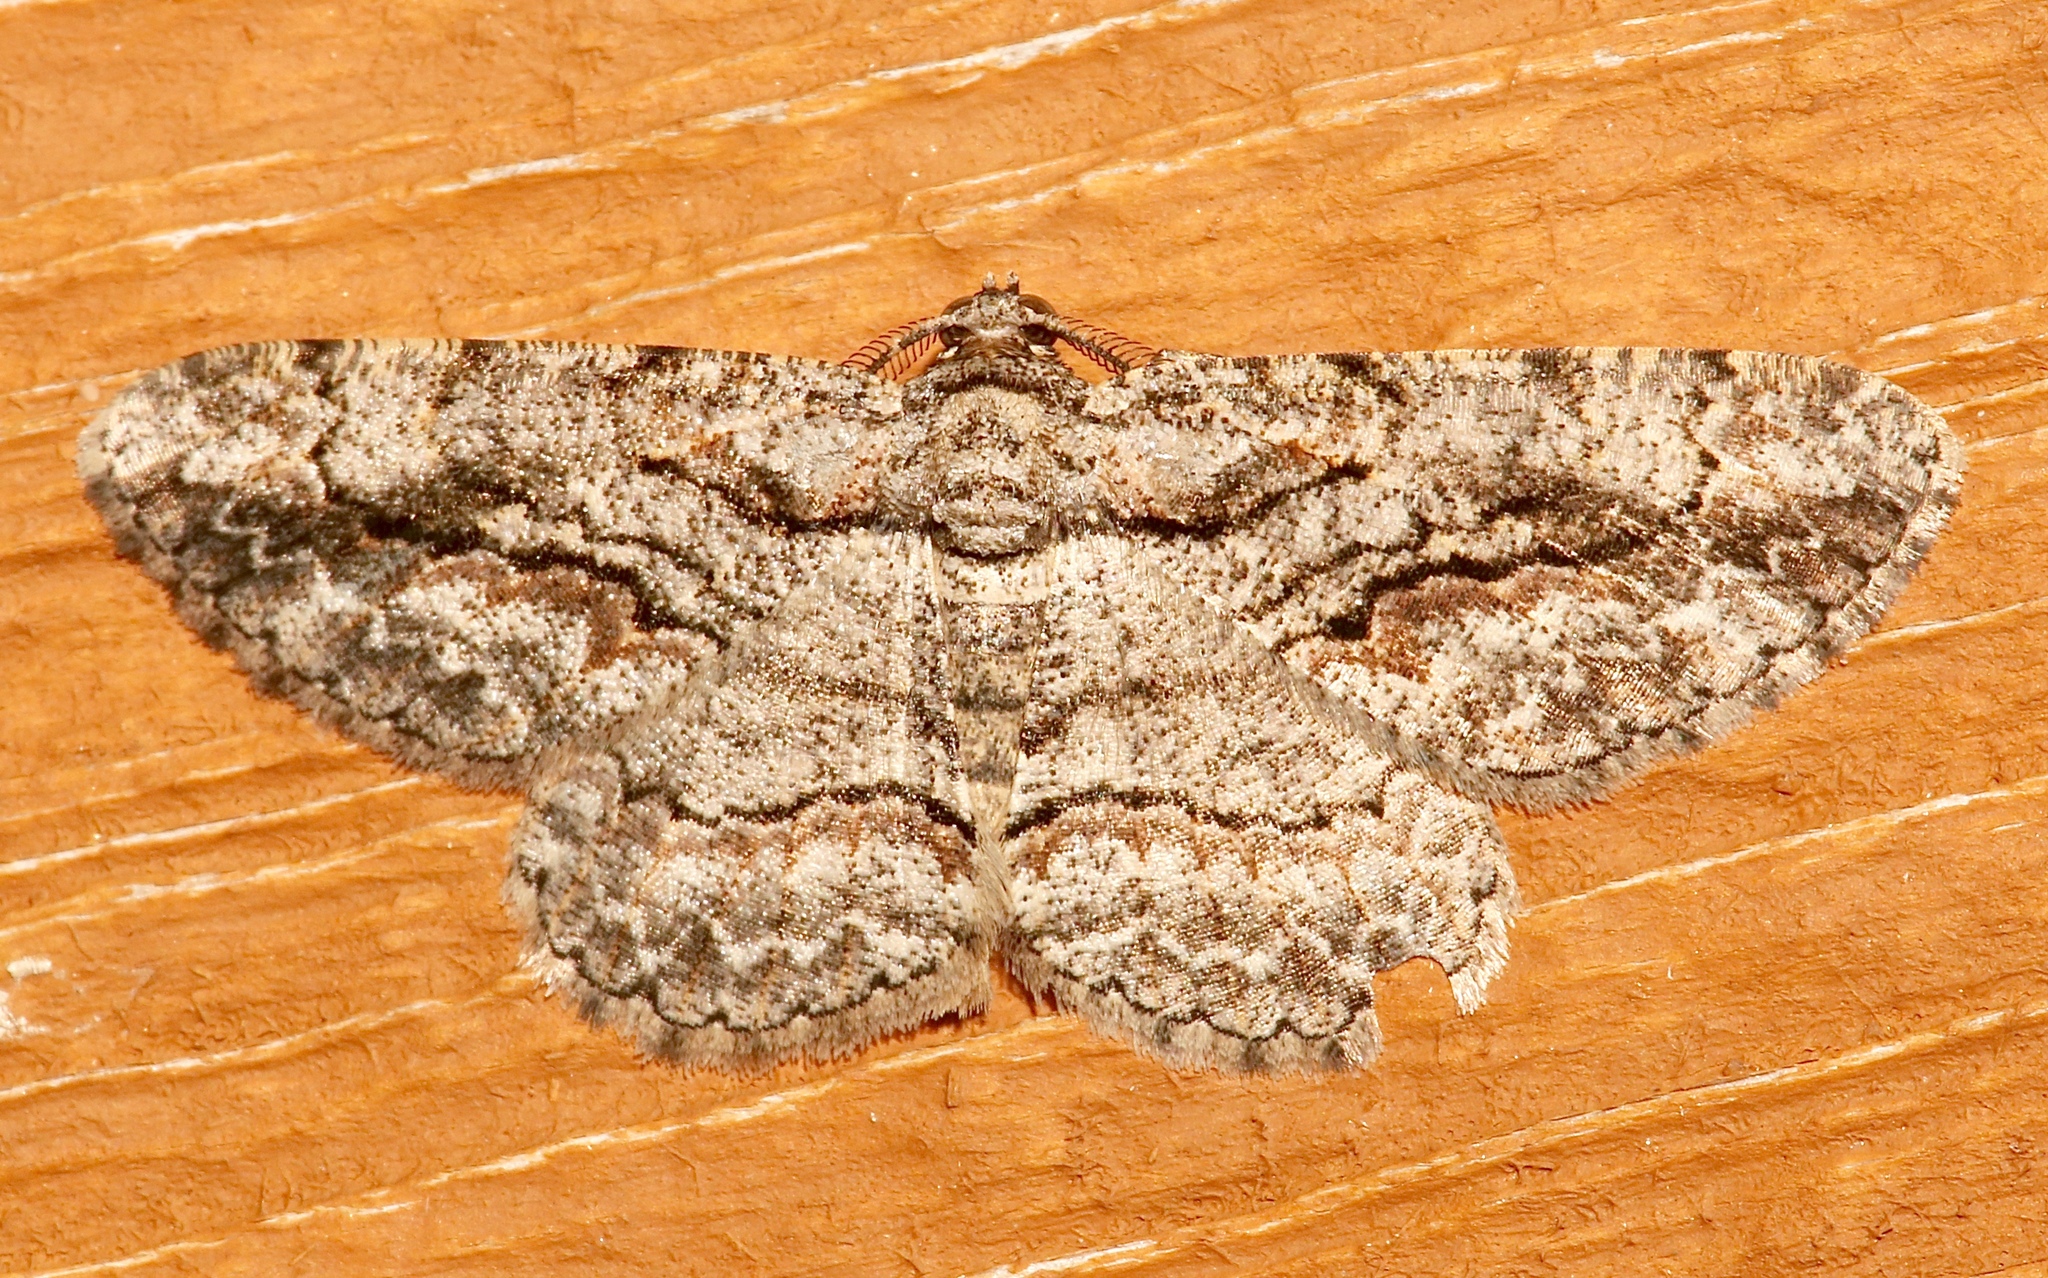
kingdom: Animalia
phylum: Arthropoda
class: Insecta
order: Lepidoptera
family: Geometridae
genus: Anavitrinella
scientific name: Anavitrinella pampinaria
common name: Common gray
